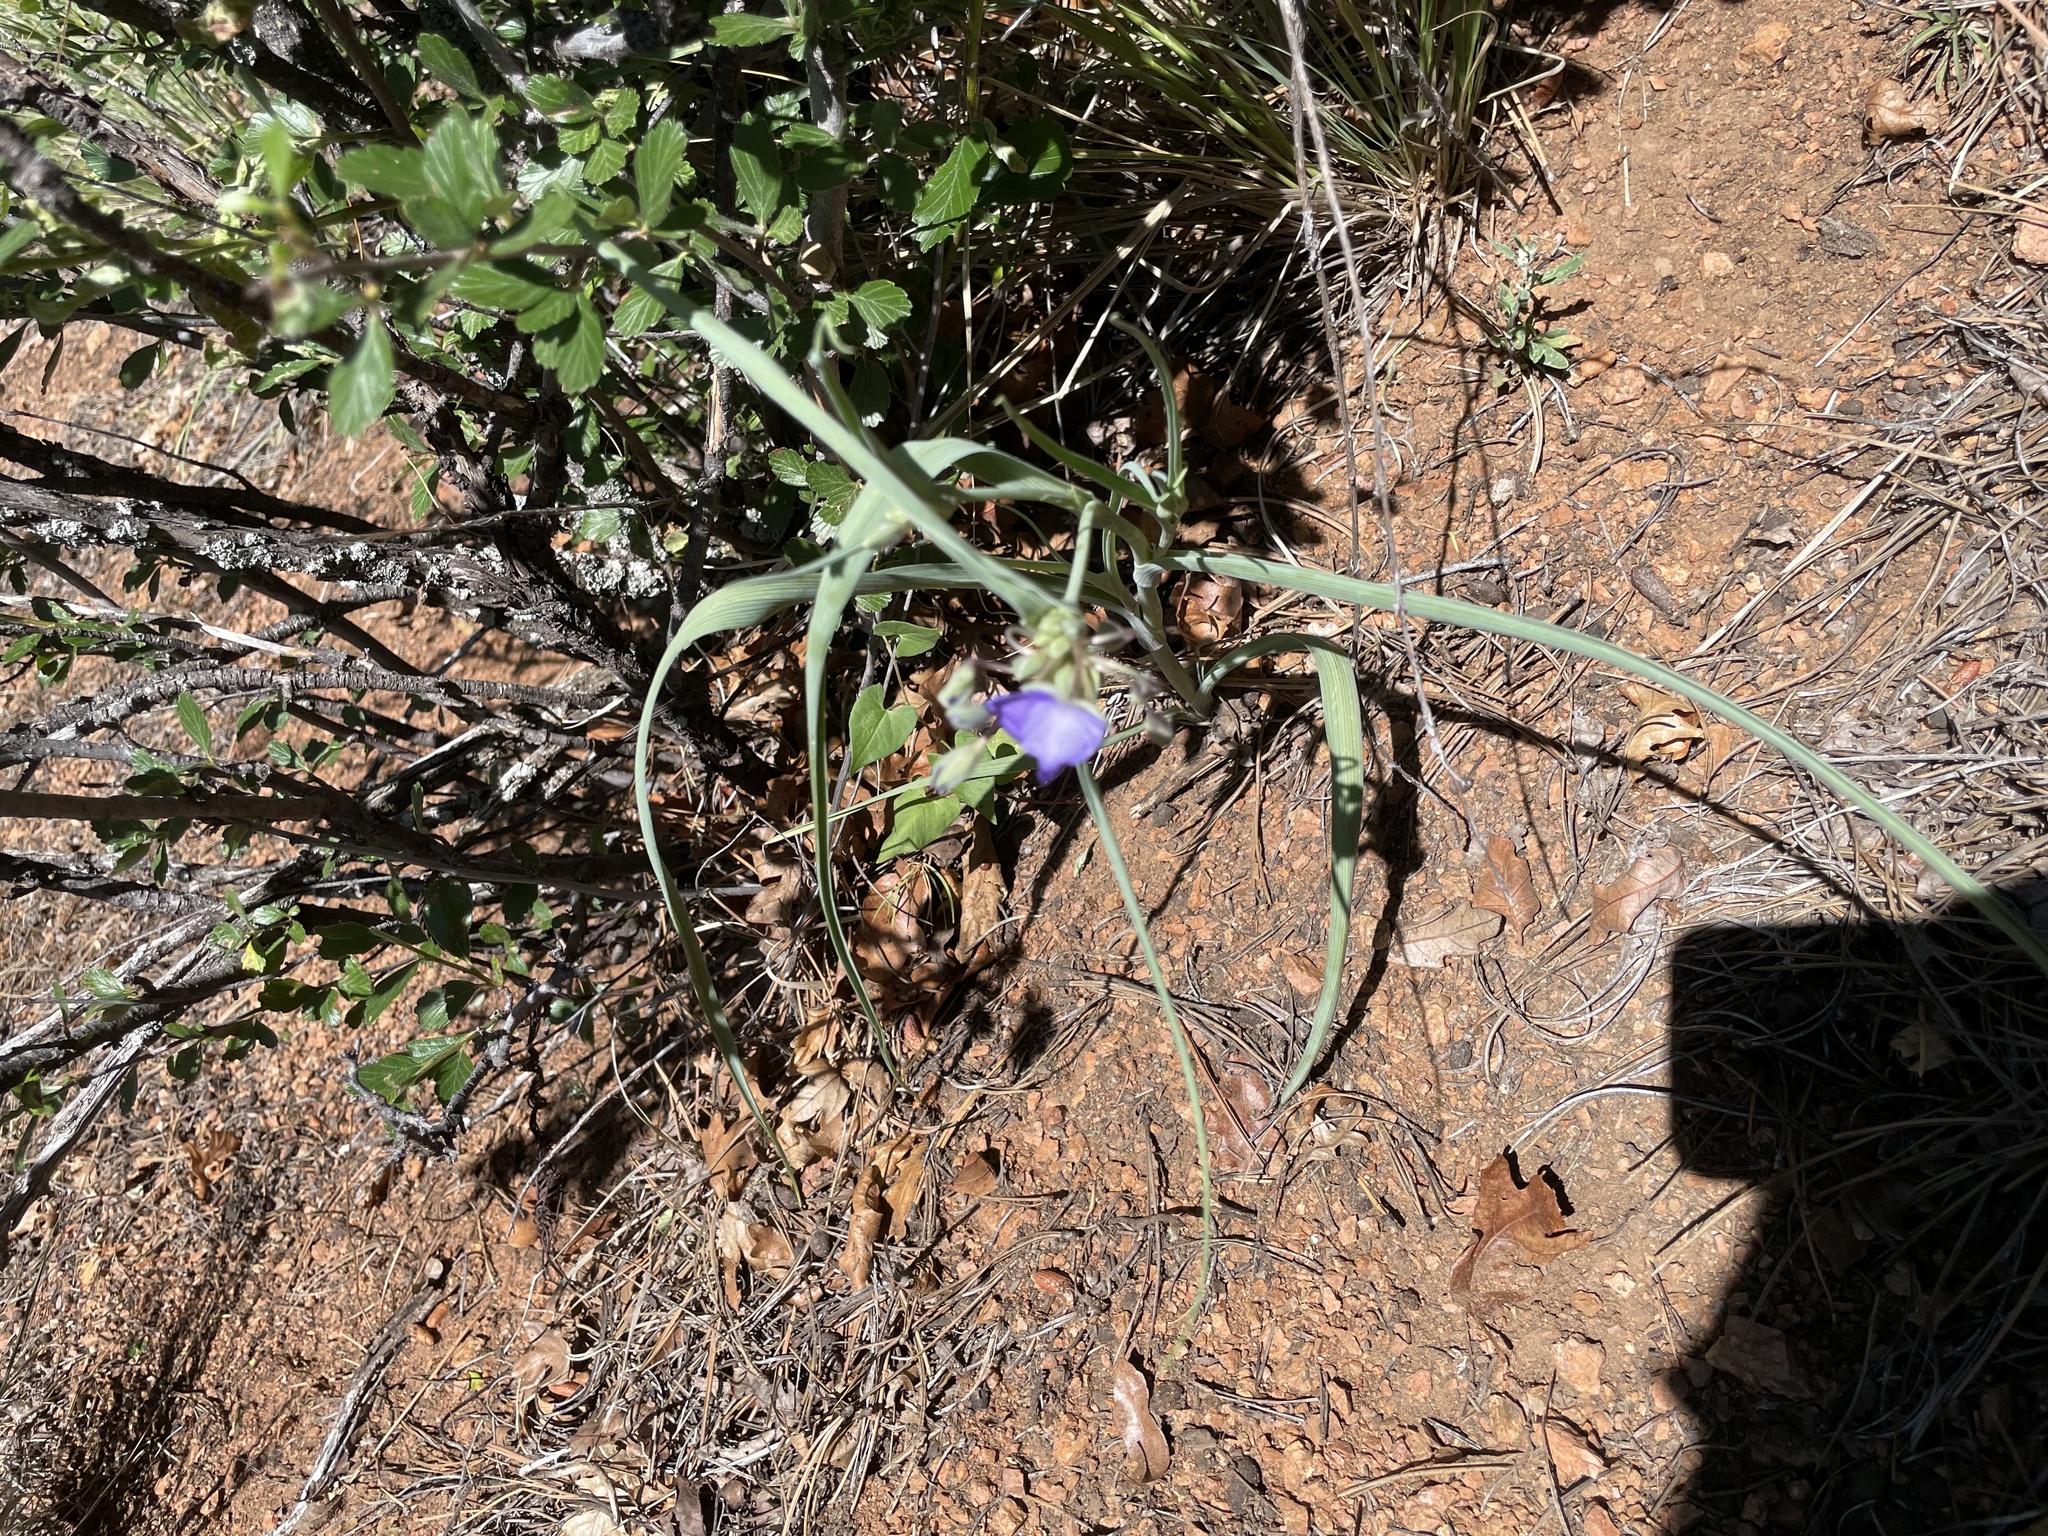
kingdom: Plantae
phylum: Tracheophyta
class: Liliopsida
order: Commelinales
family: Commelinaceae
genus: Tradescantia
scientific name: Tradescantia occidentalis
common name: Prairie spiderwort
